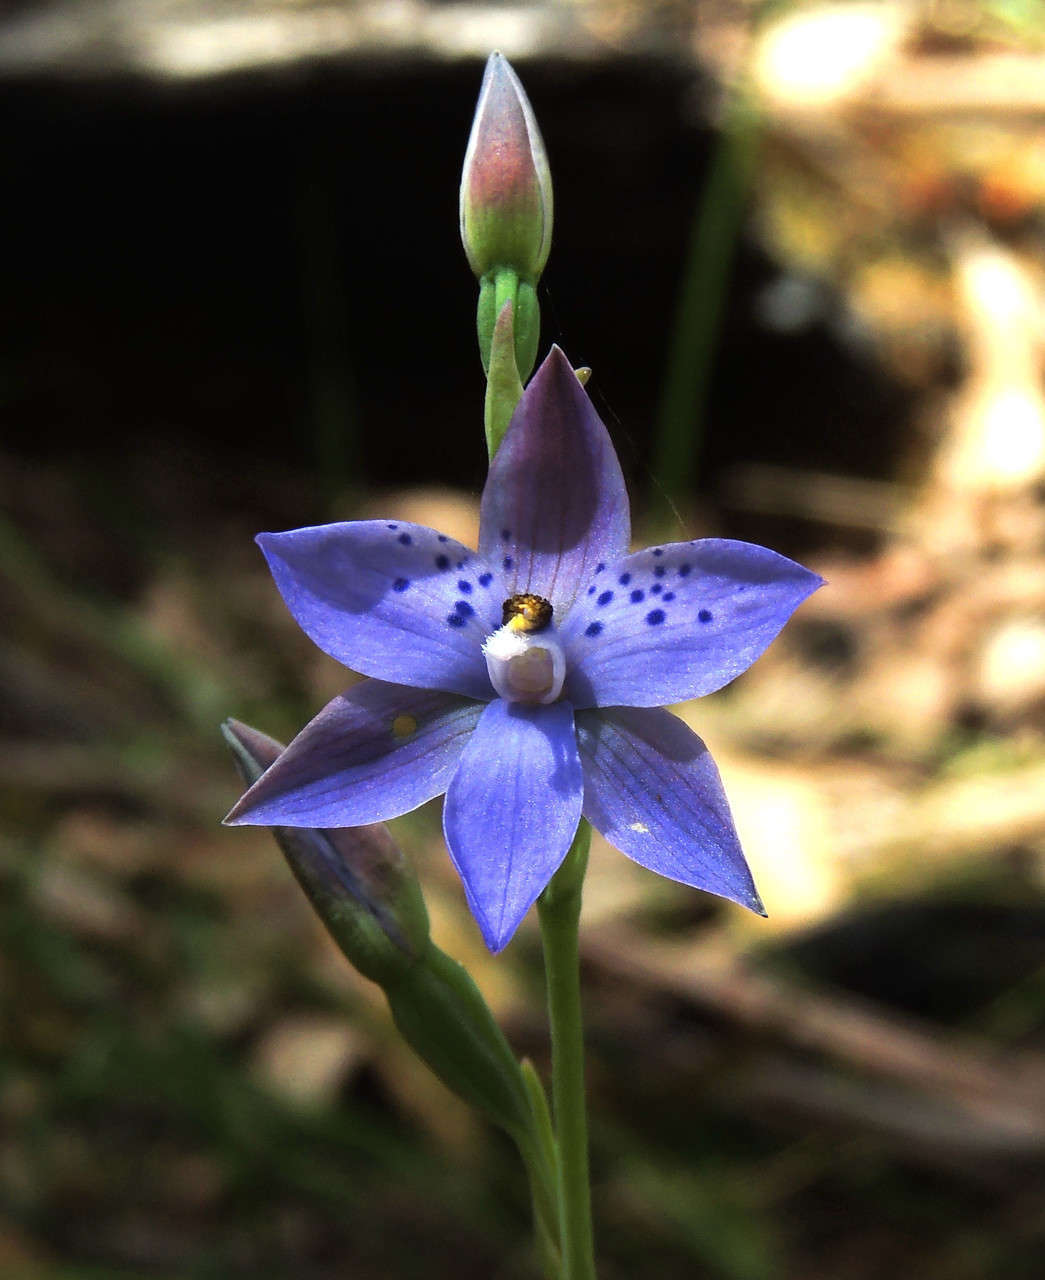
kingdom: Plantae
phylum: Tracheophyta
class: Liliopsida
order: Asparagales
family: Orchidaceae
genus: Thelymitra
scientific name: Thelymitra ixioides
